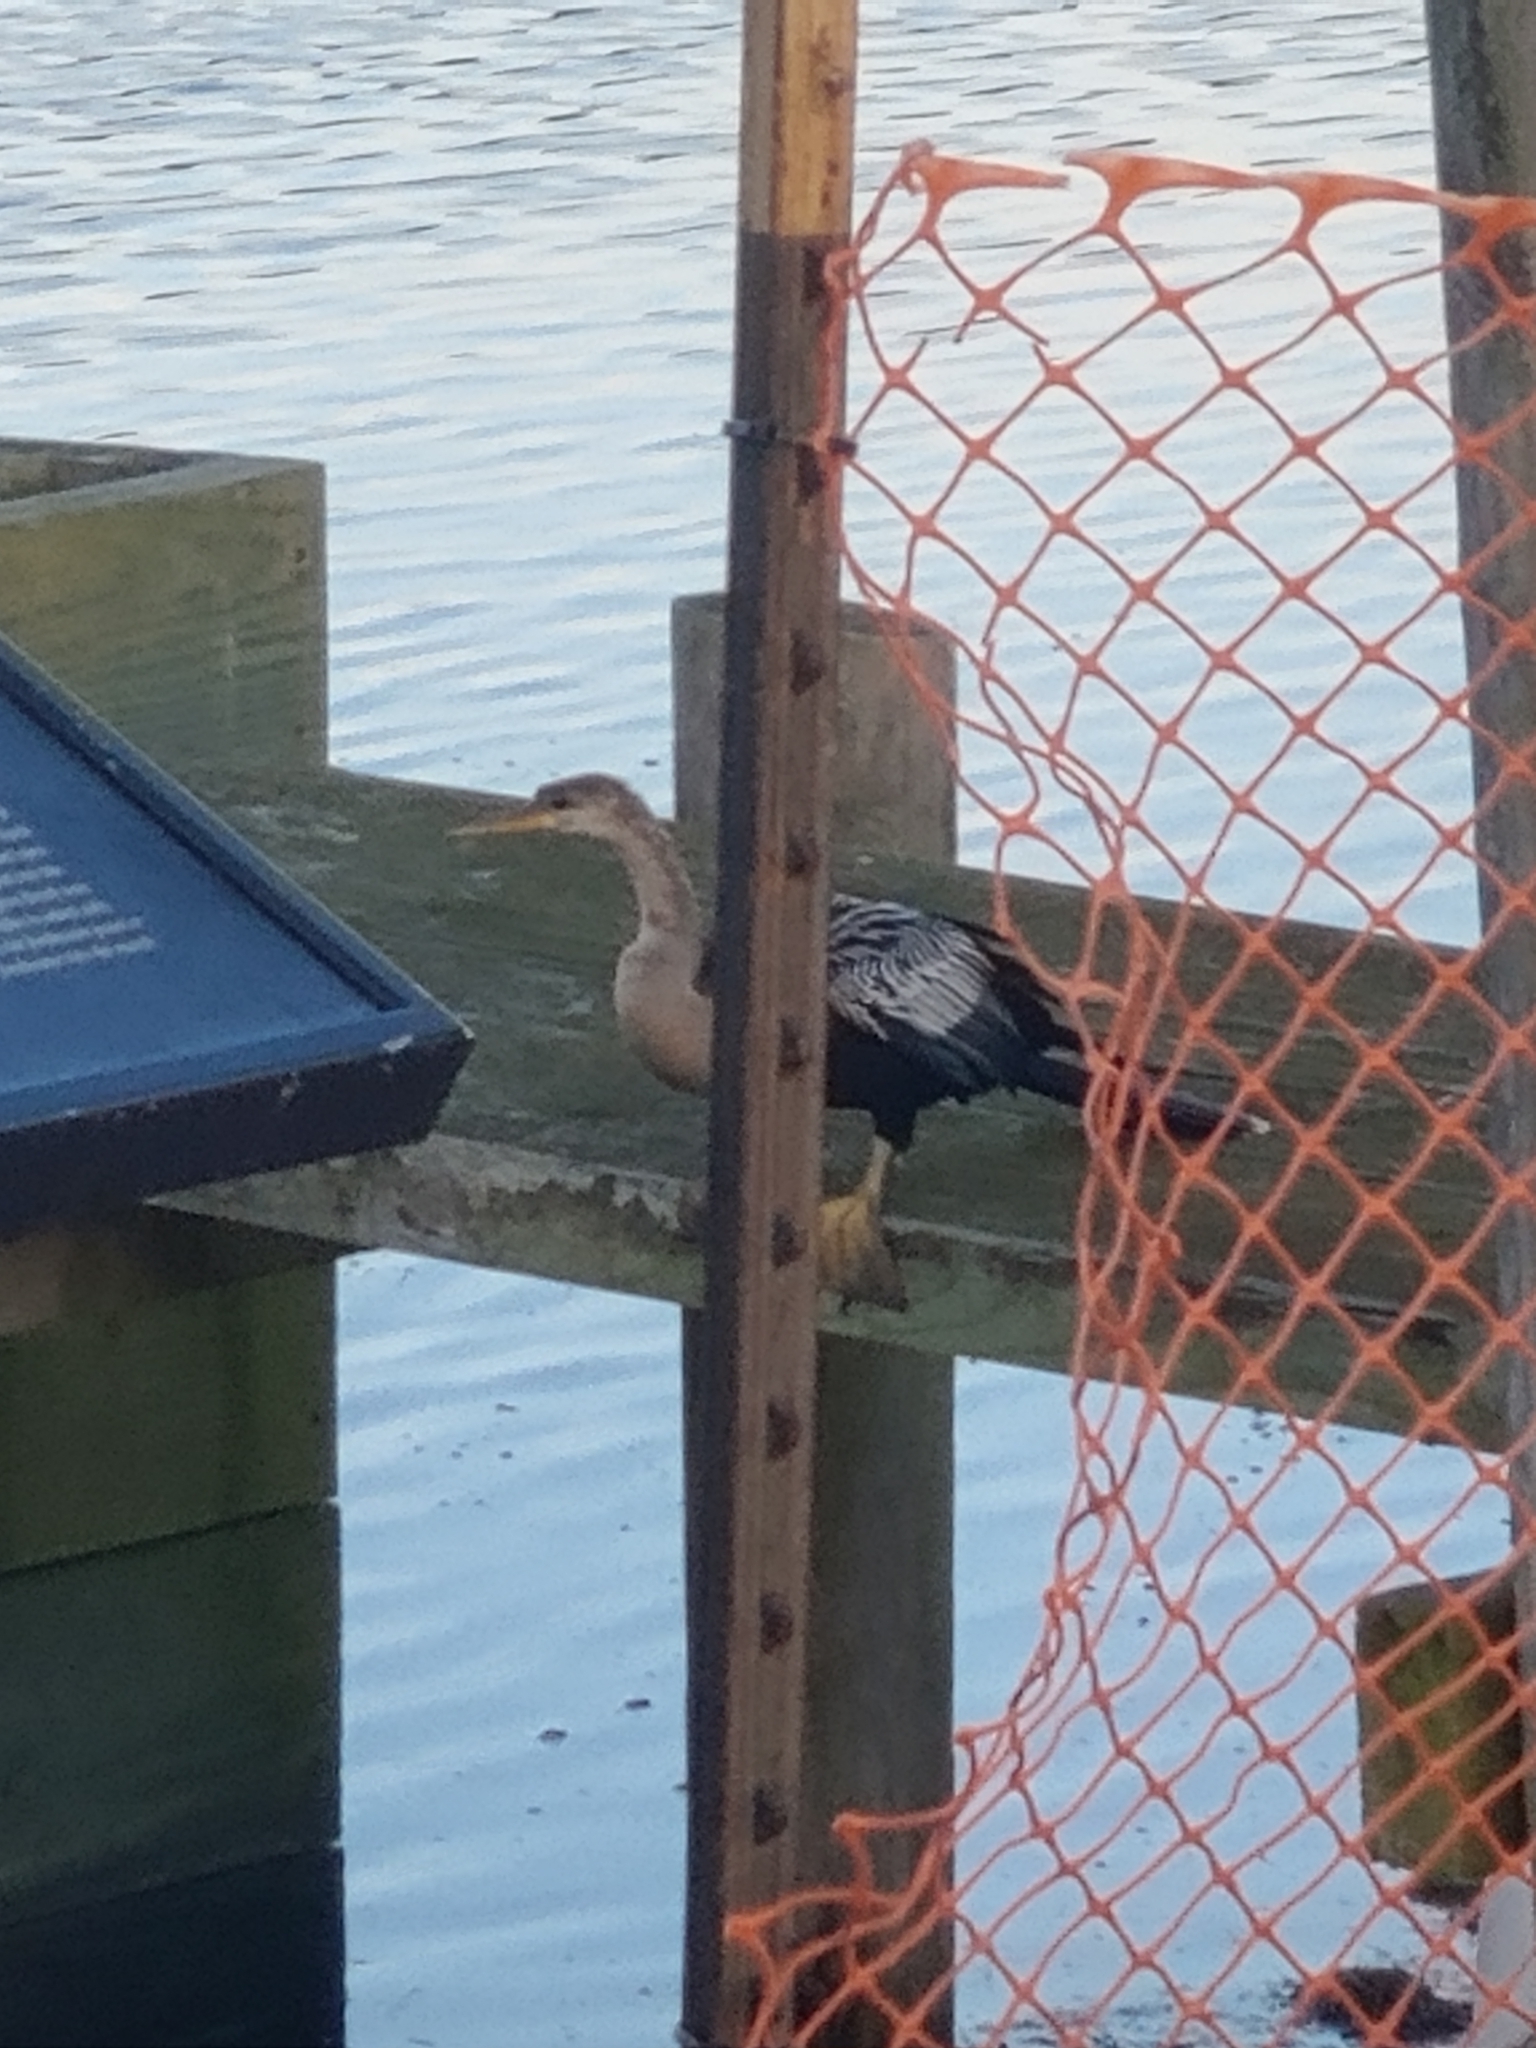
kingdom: Animalia
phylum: Chordata
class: Aves
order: Suliformes
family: Anhingidae
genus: Anhinga
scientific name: Anhinga anhinga
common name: Anhinga
